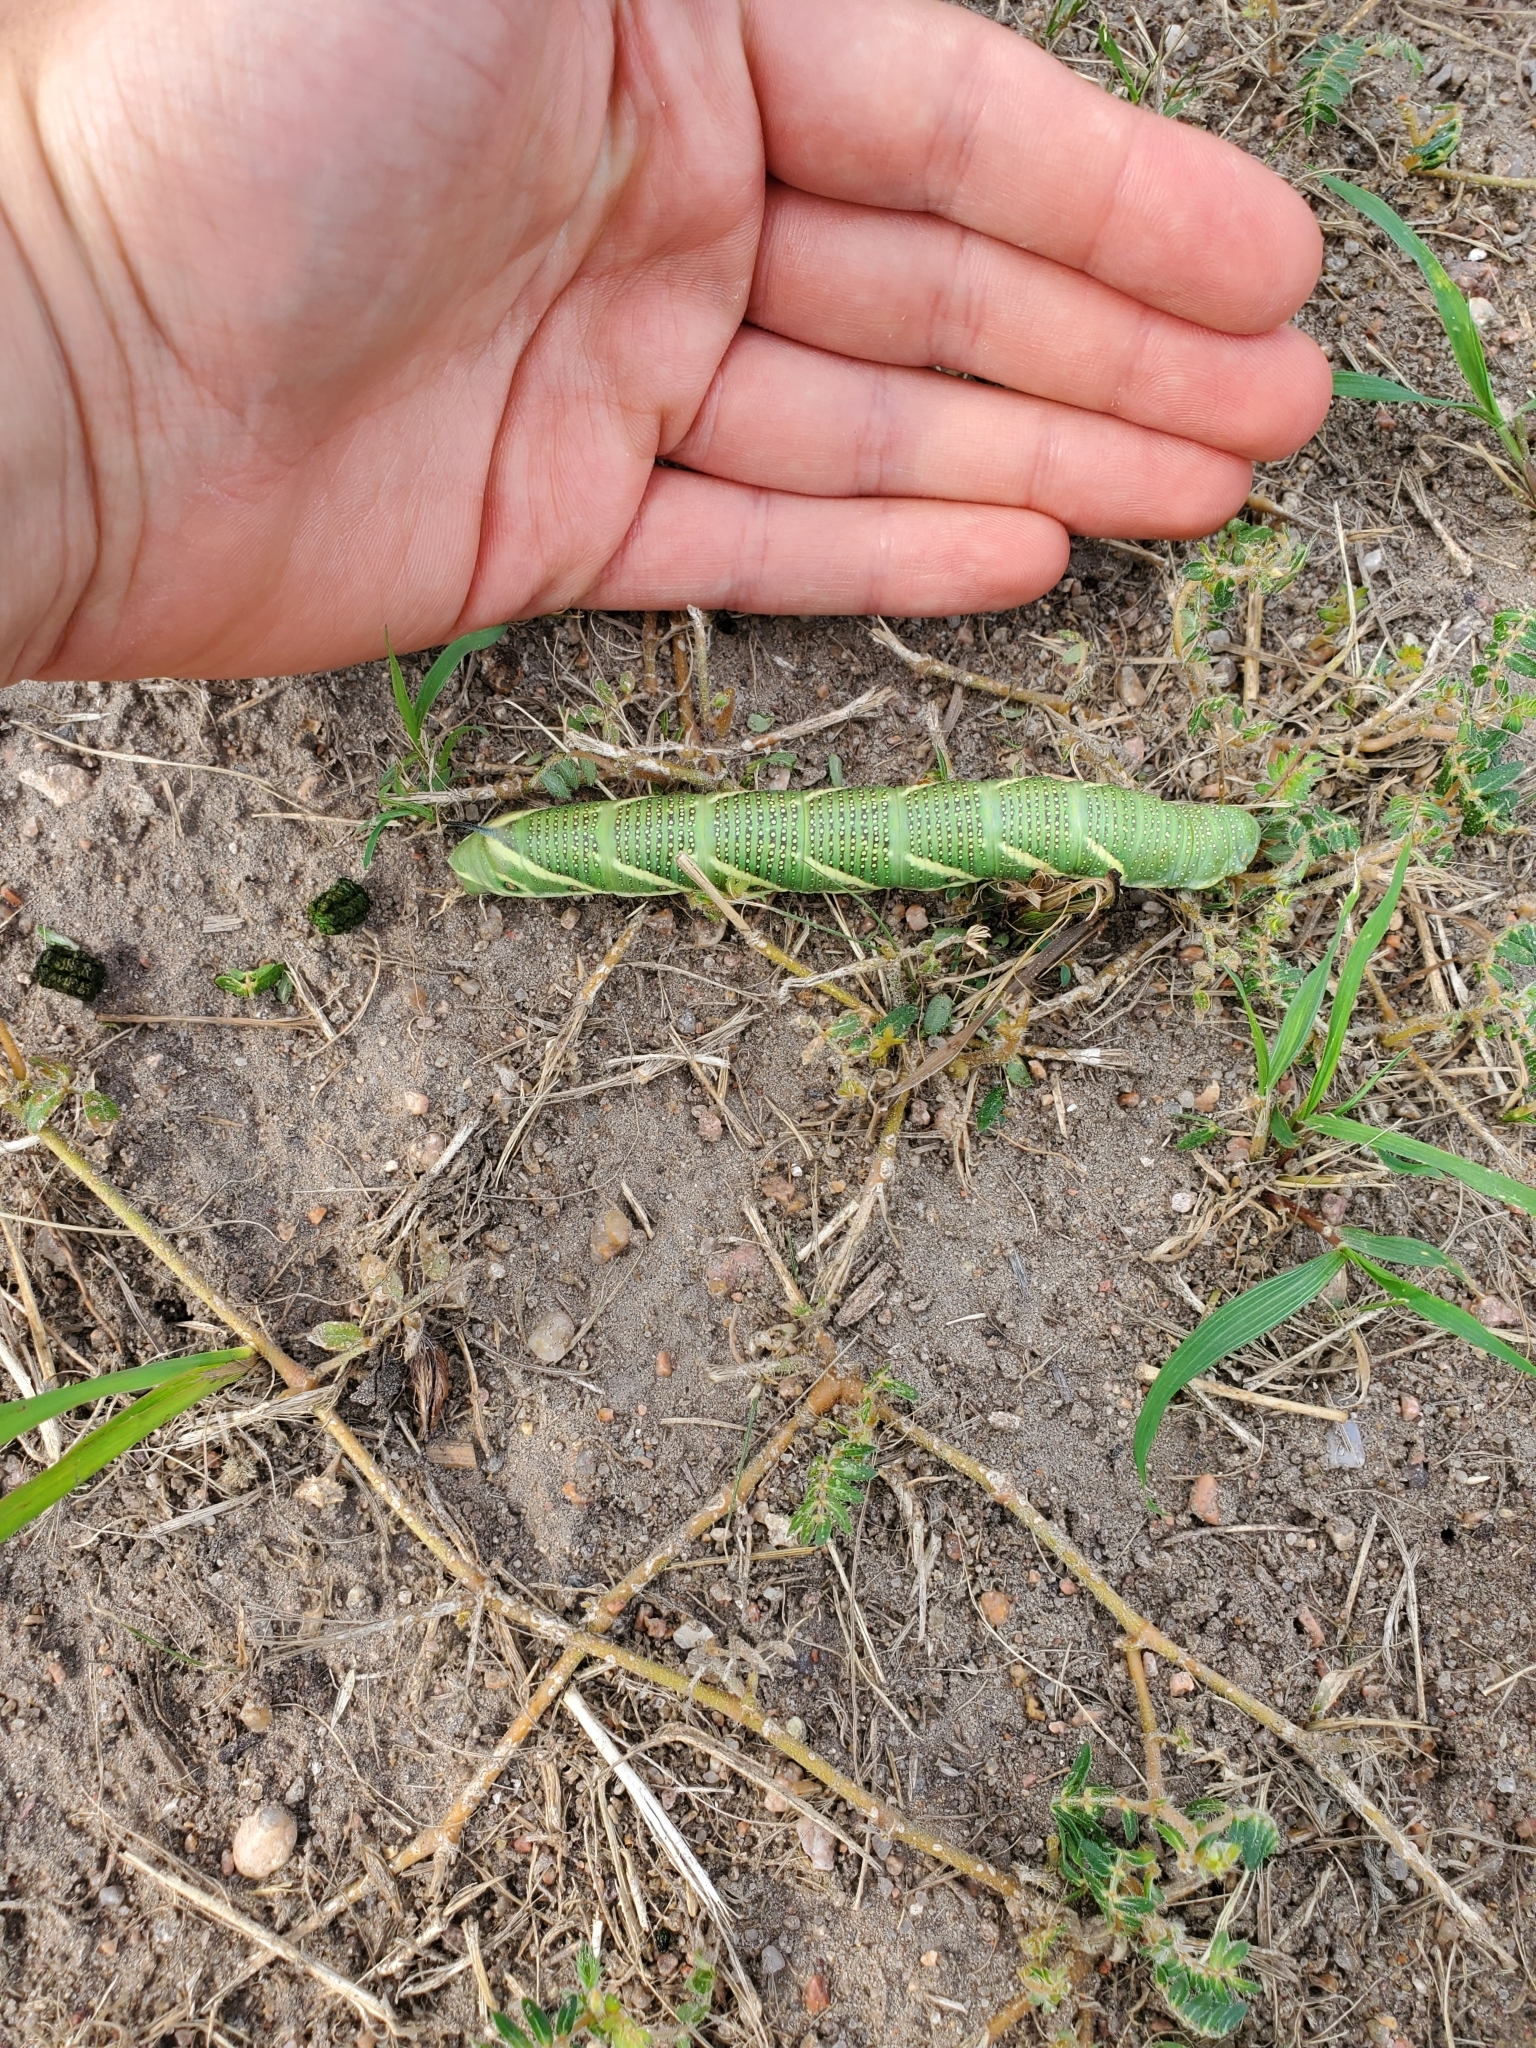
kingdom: Animalia
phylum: Arthropoda
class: Insecta
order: Lepidoptera
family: Sphingidae
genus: Manduca
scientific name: Manduca quinquemaculatus
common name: Five-spotted hawk-moth
